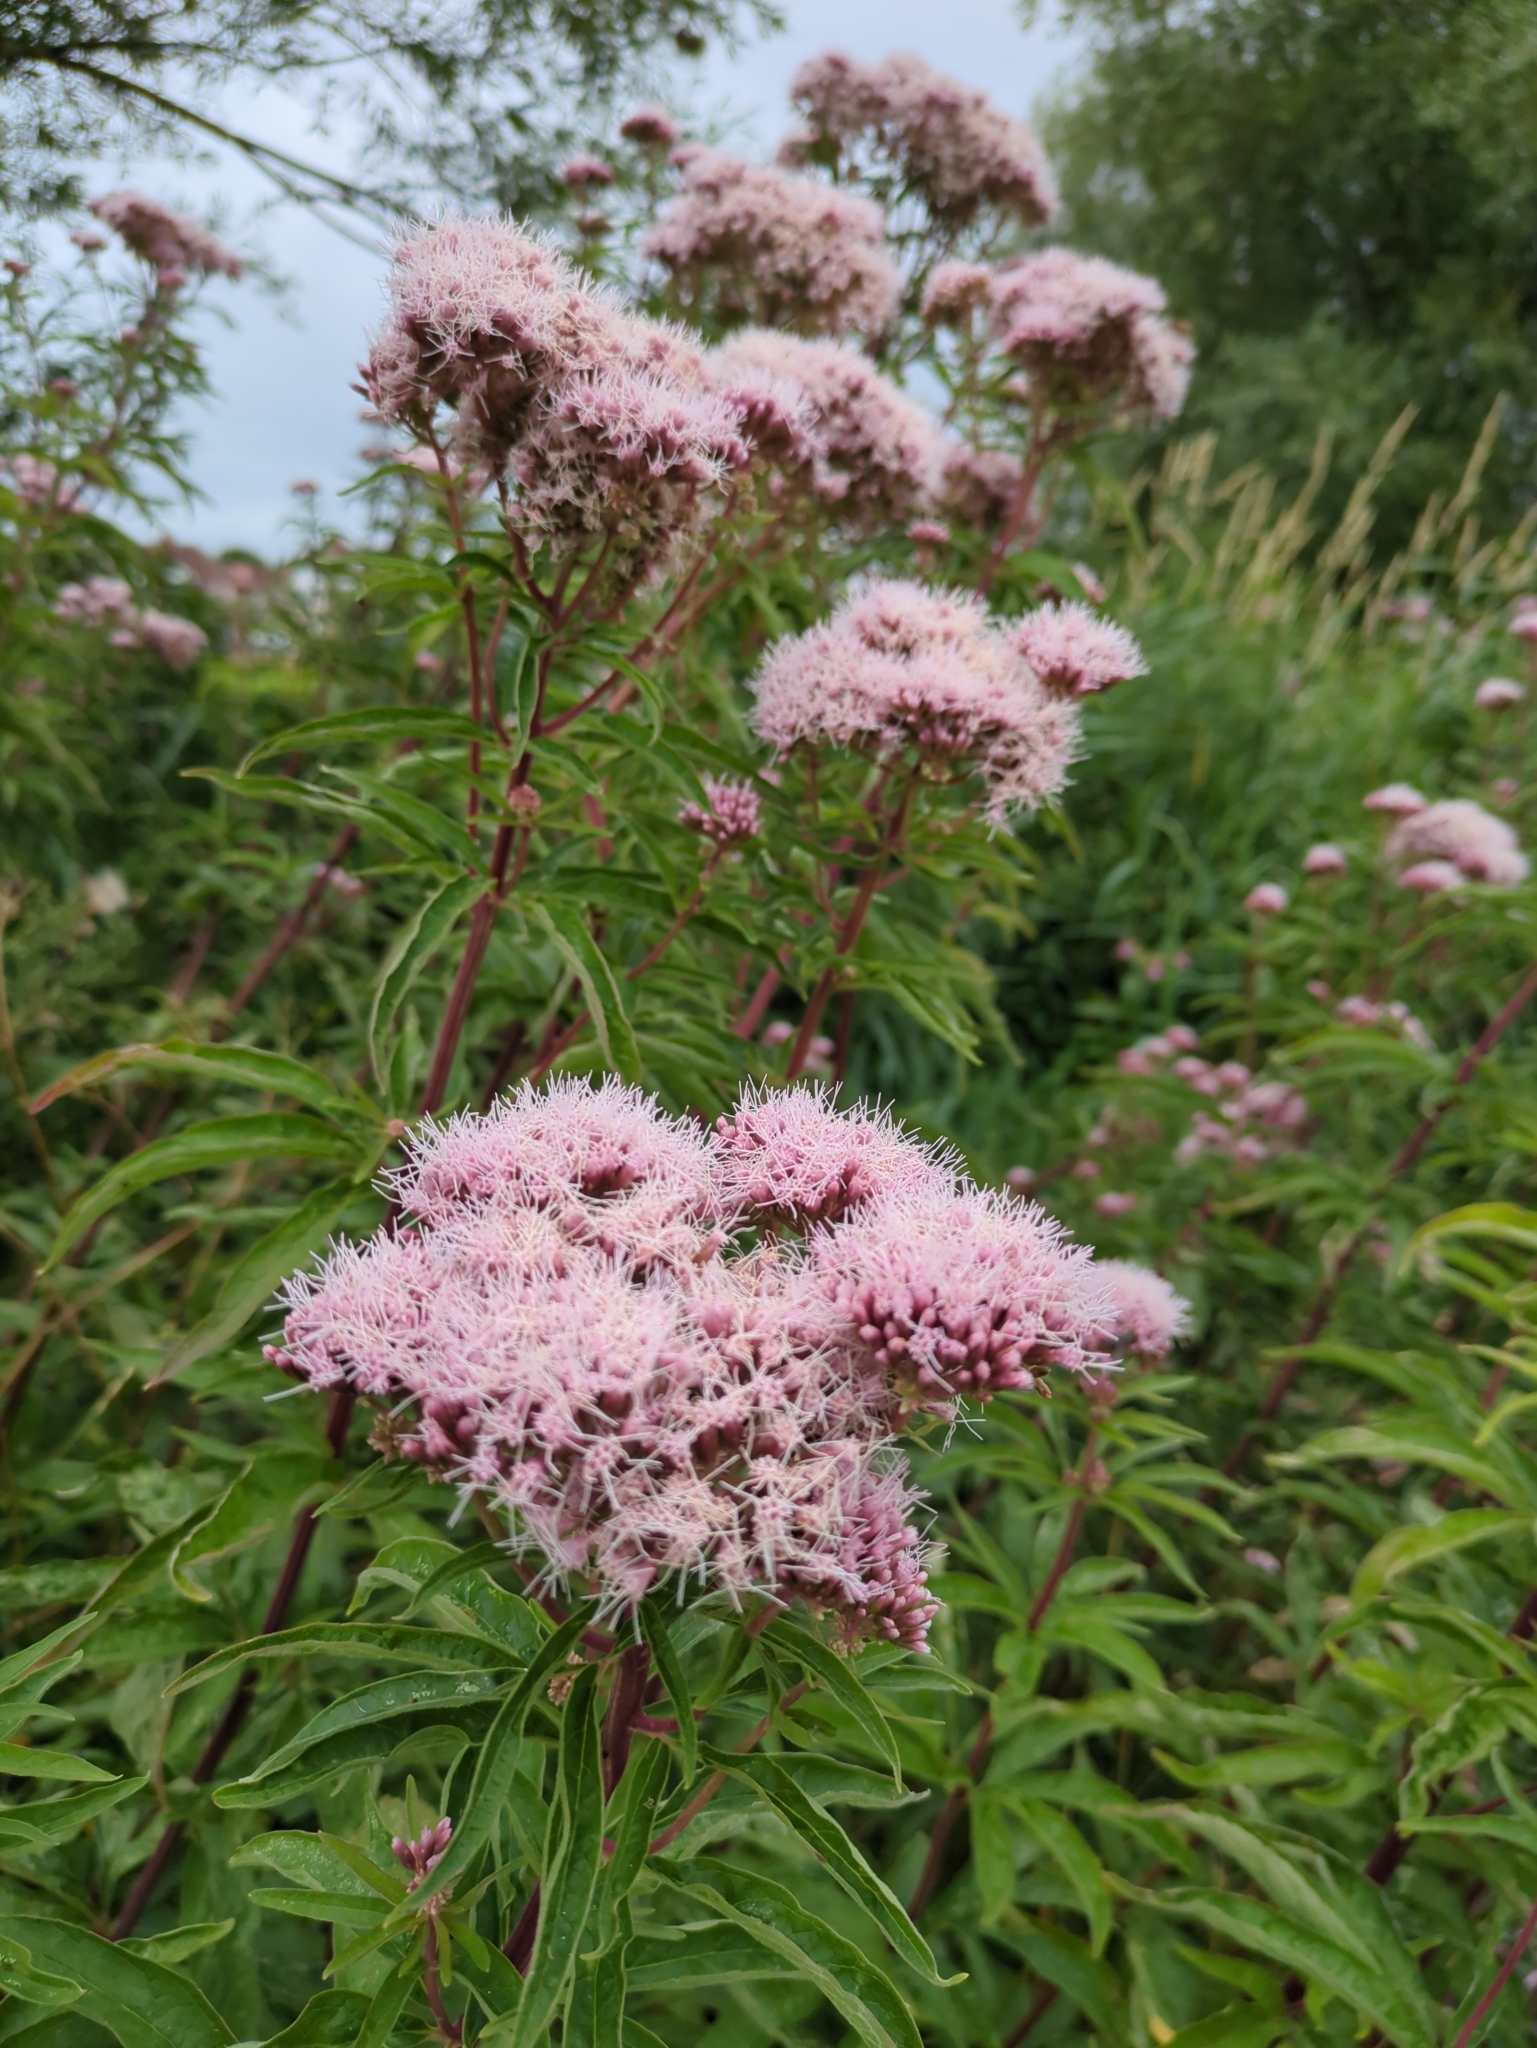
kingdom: Plantae
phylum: Tracheophyta
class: Magnoliopsida
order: Asterales
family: Asteraceae
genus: Eupatorium
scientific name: Eupatorium cannabinum
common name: Hemp-agrimony
